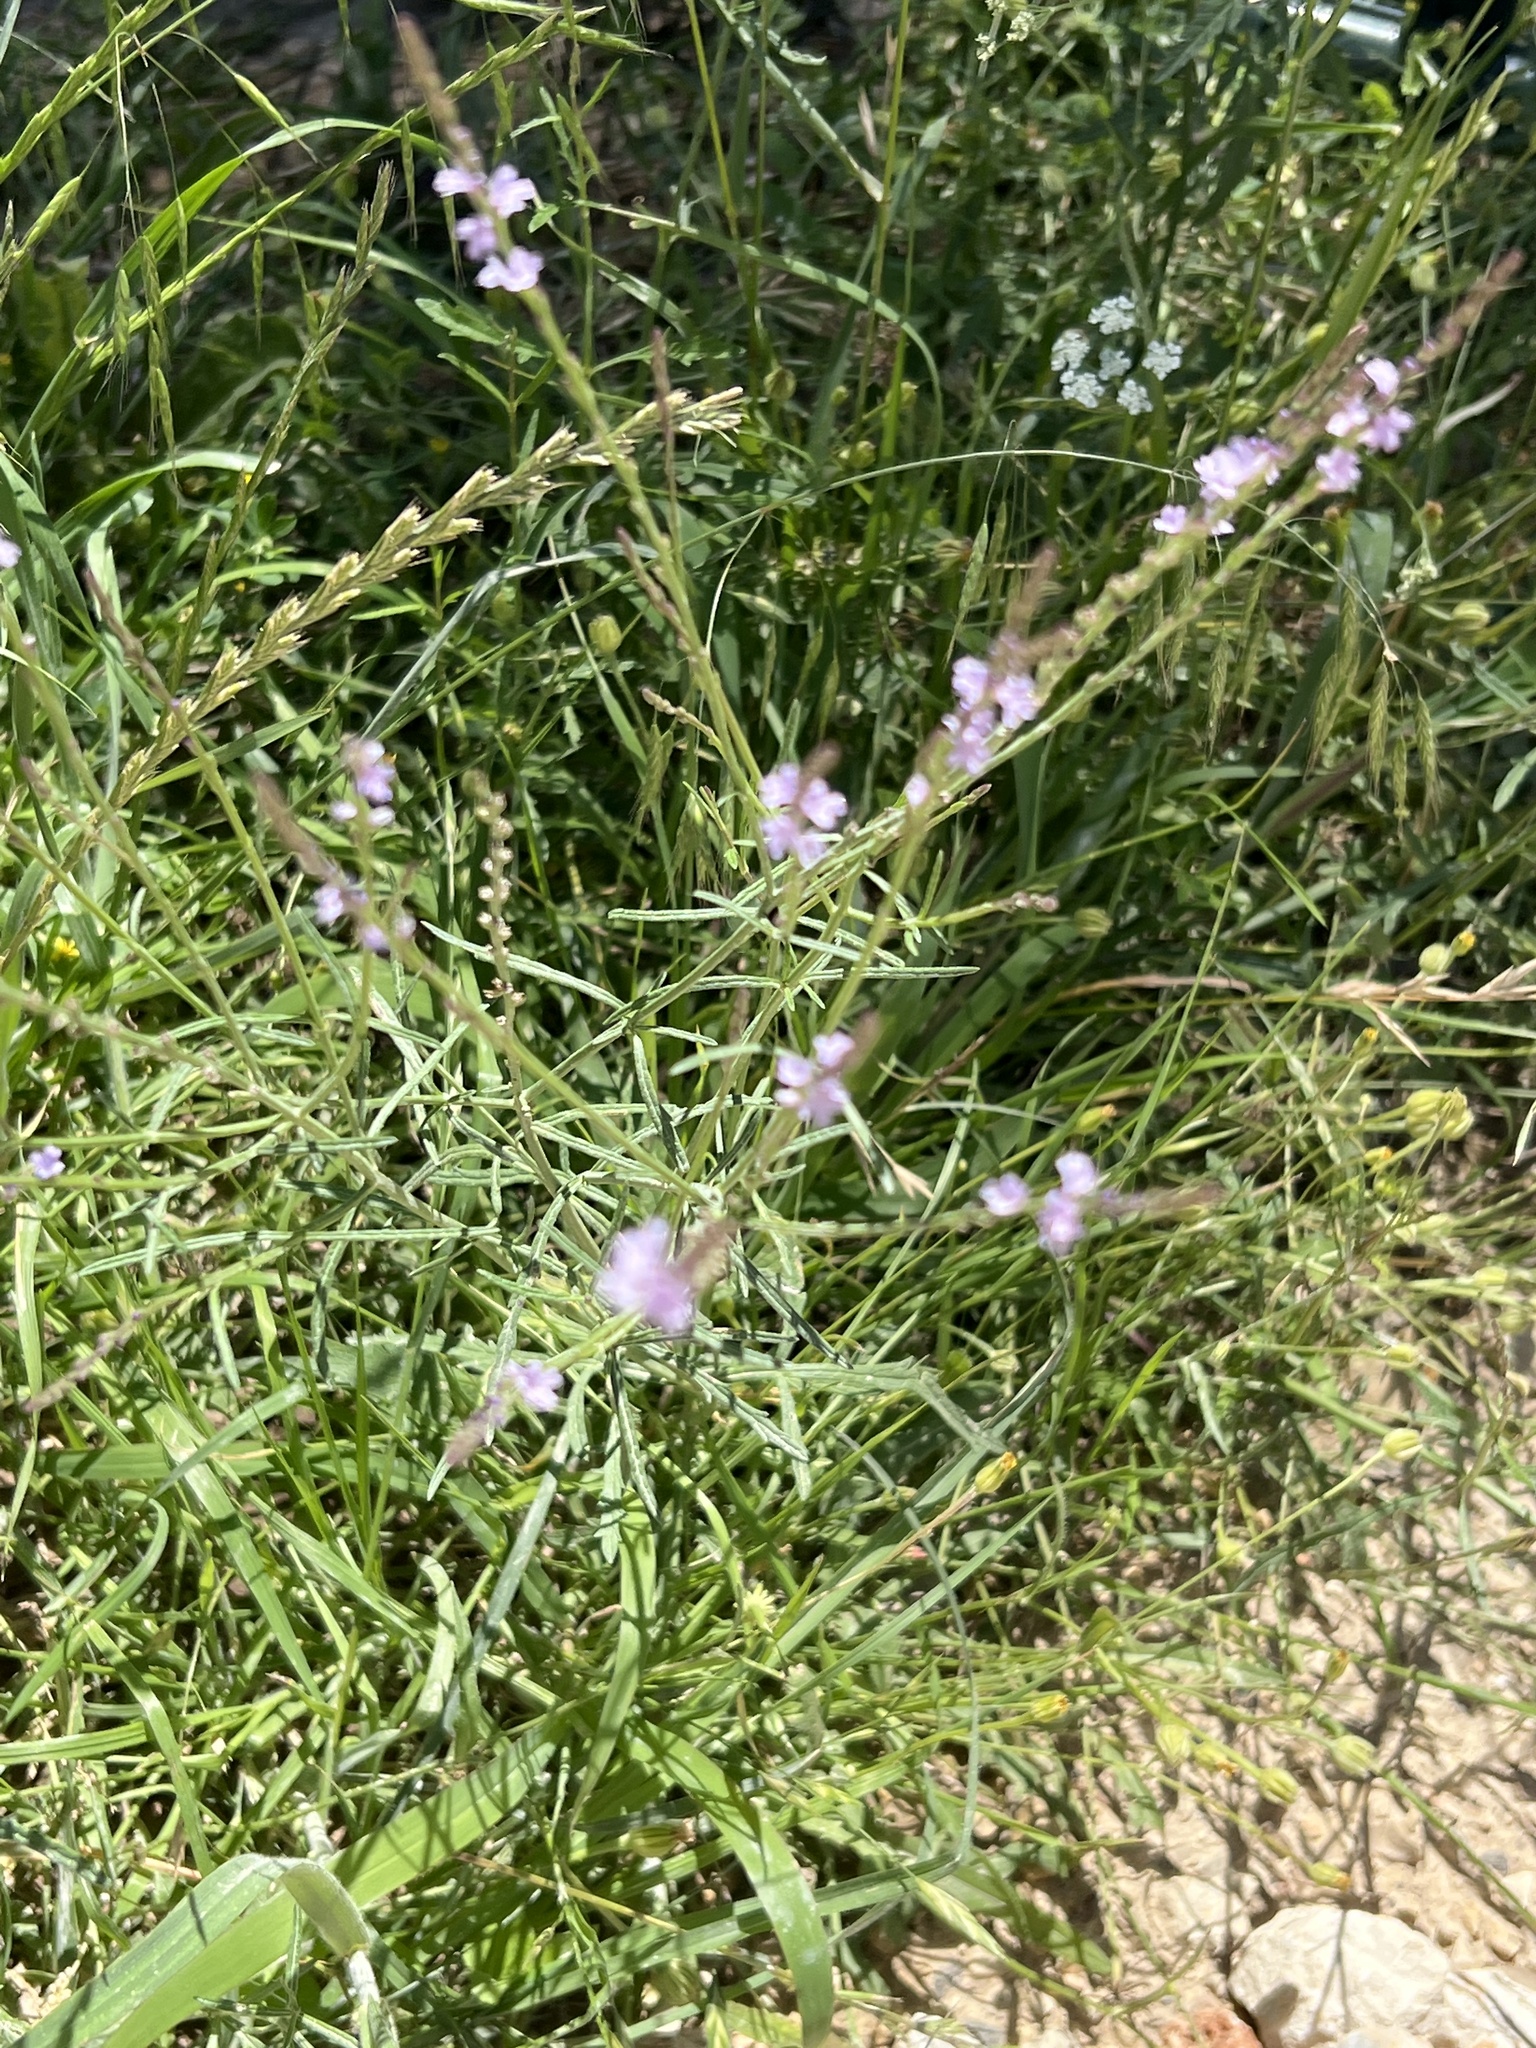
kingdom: Plantae
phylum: Tracheophyta
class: Magnoliopsida
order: Lamiales
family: Verbenaceae
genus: Verbena
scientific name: Verbena halei
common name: Texas vervain
